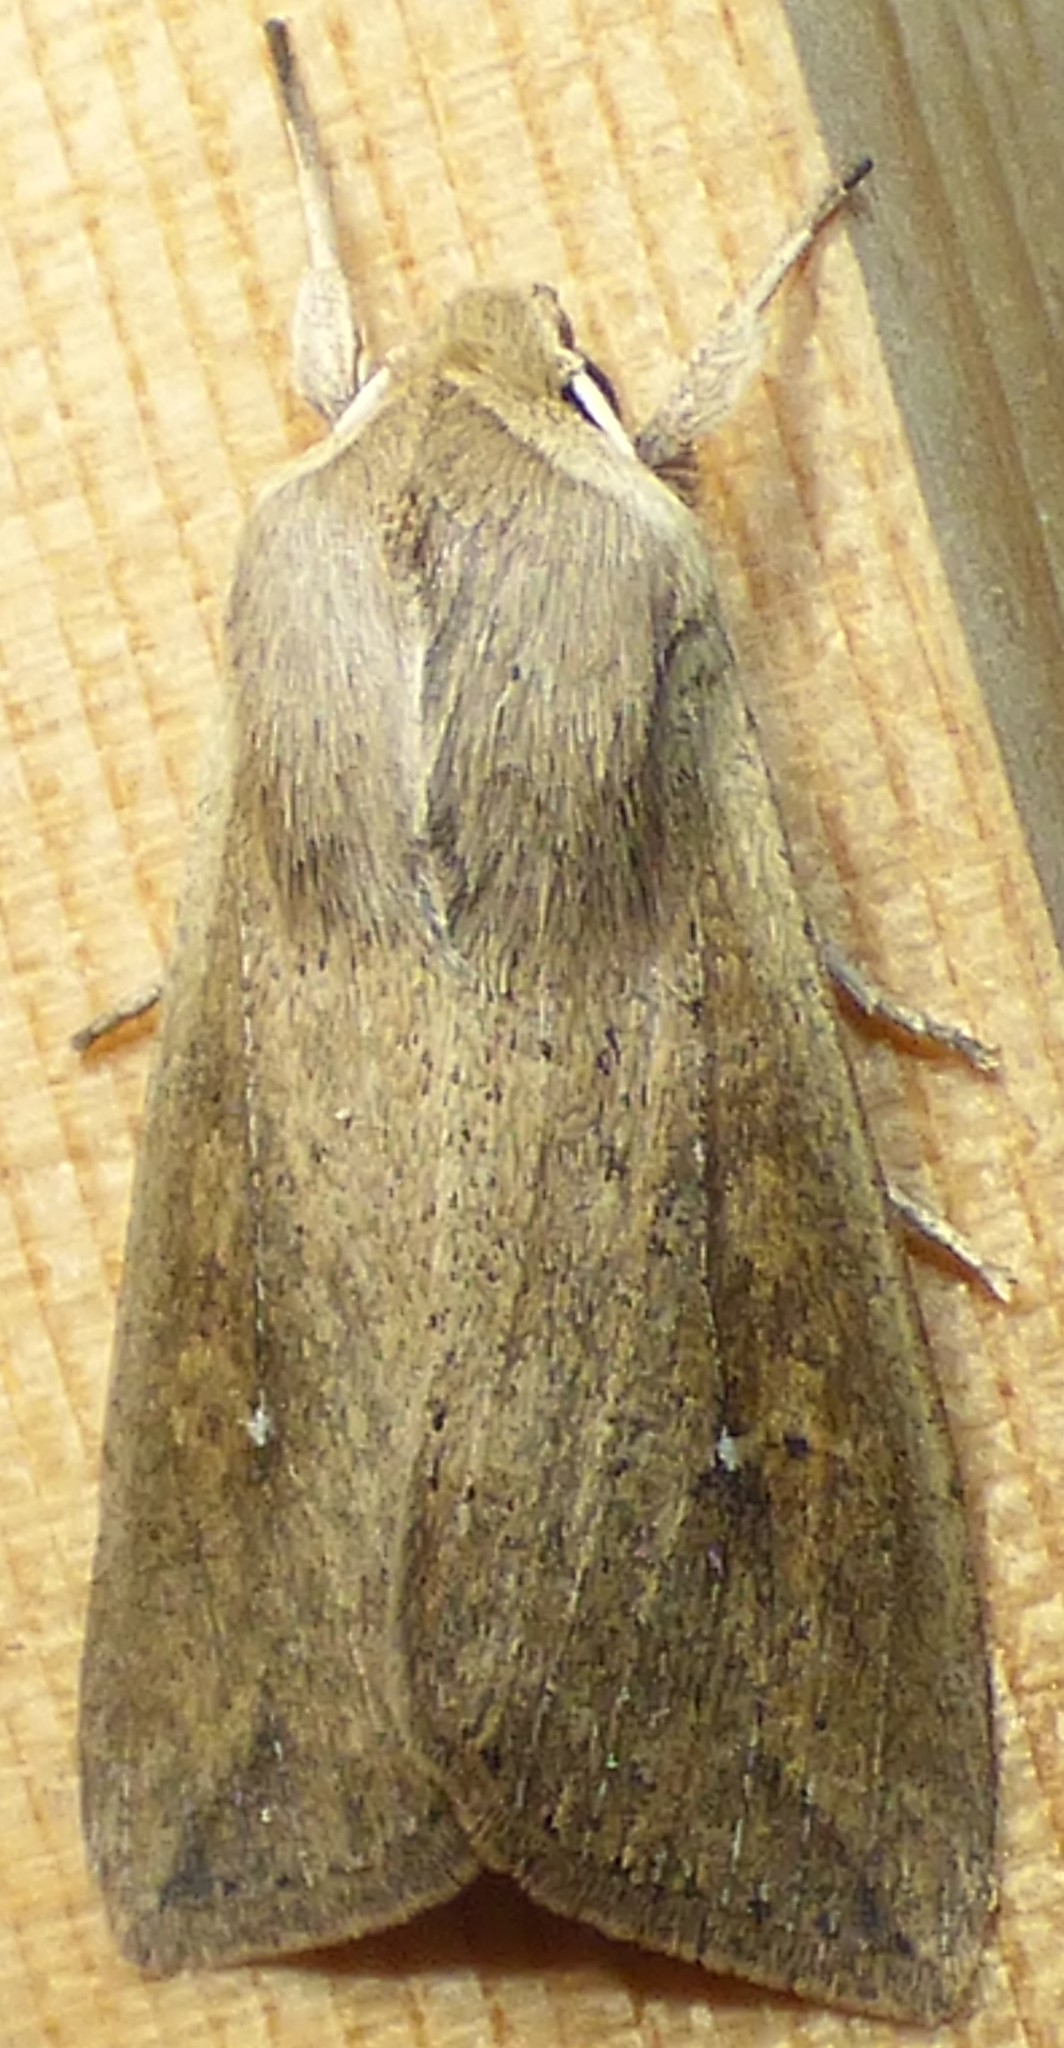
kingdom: Animalia
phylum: Arthropoda
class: Insecta
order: Lepidoptera
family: Noctuidae
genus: Mythimna
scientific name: Mythimna unipuncta
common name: White-speck
